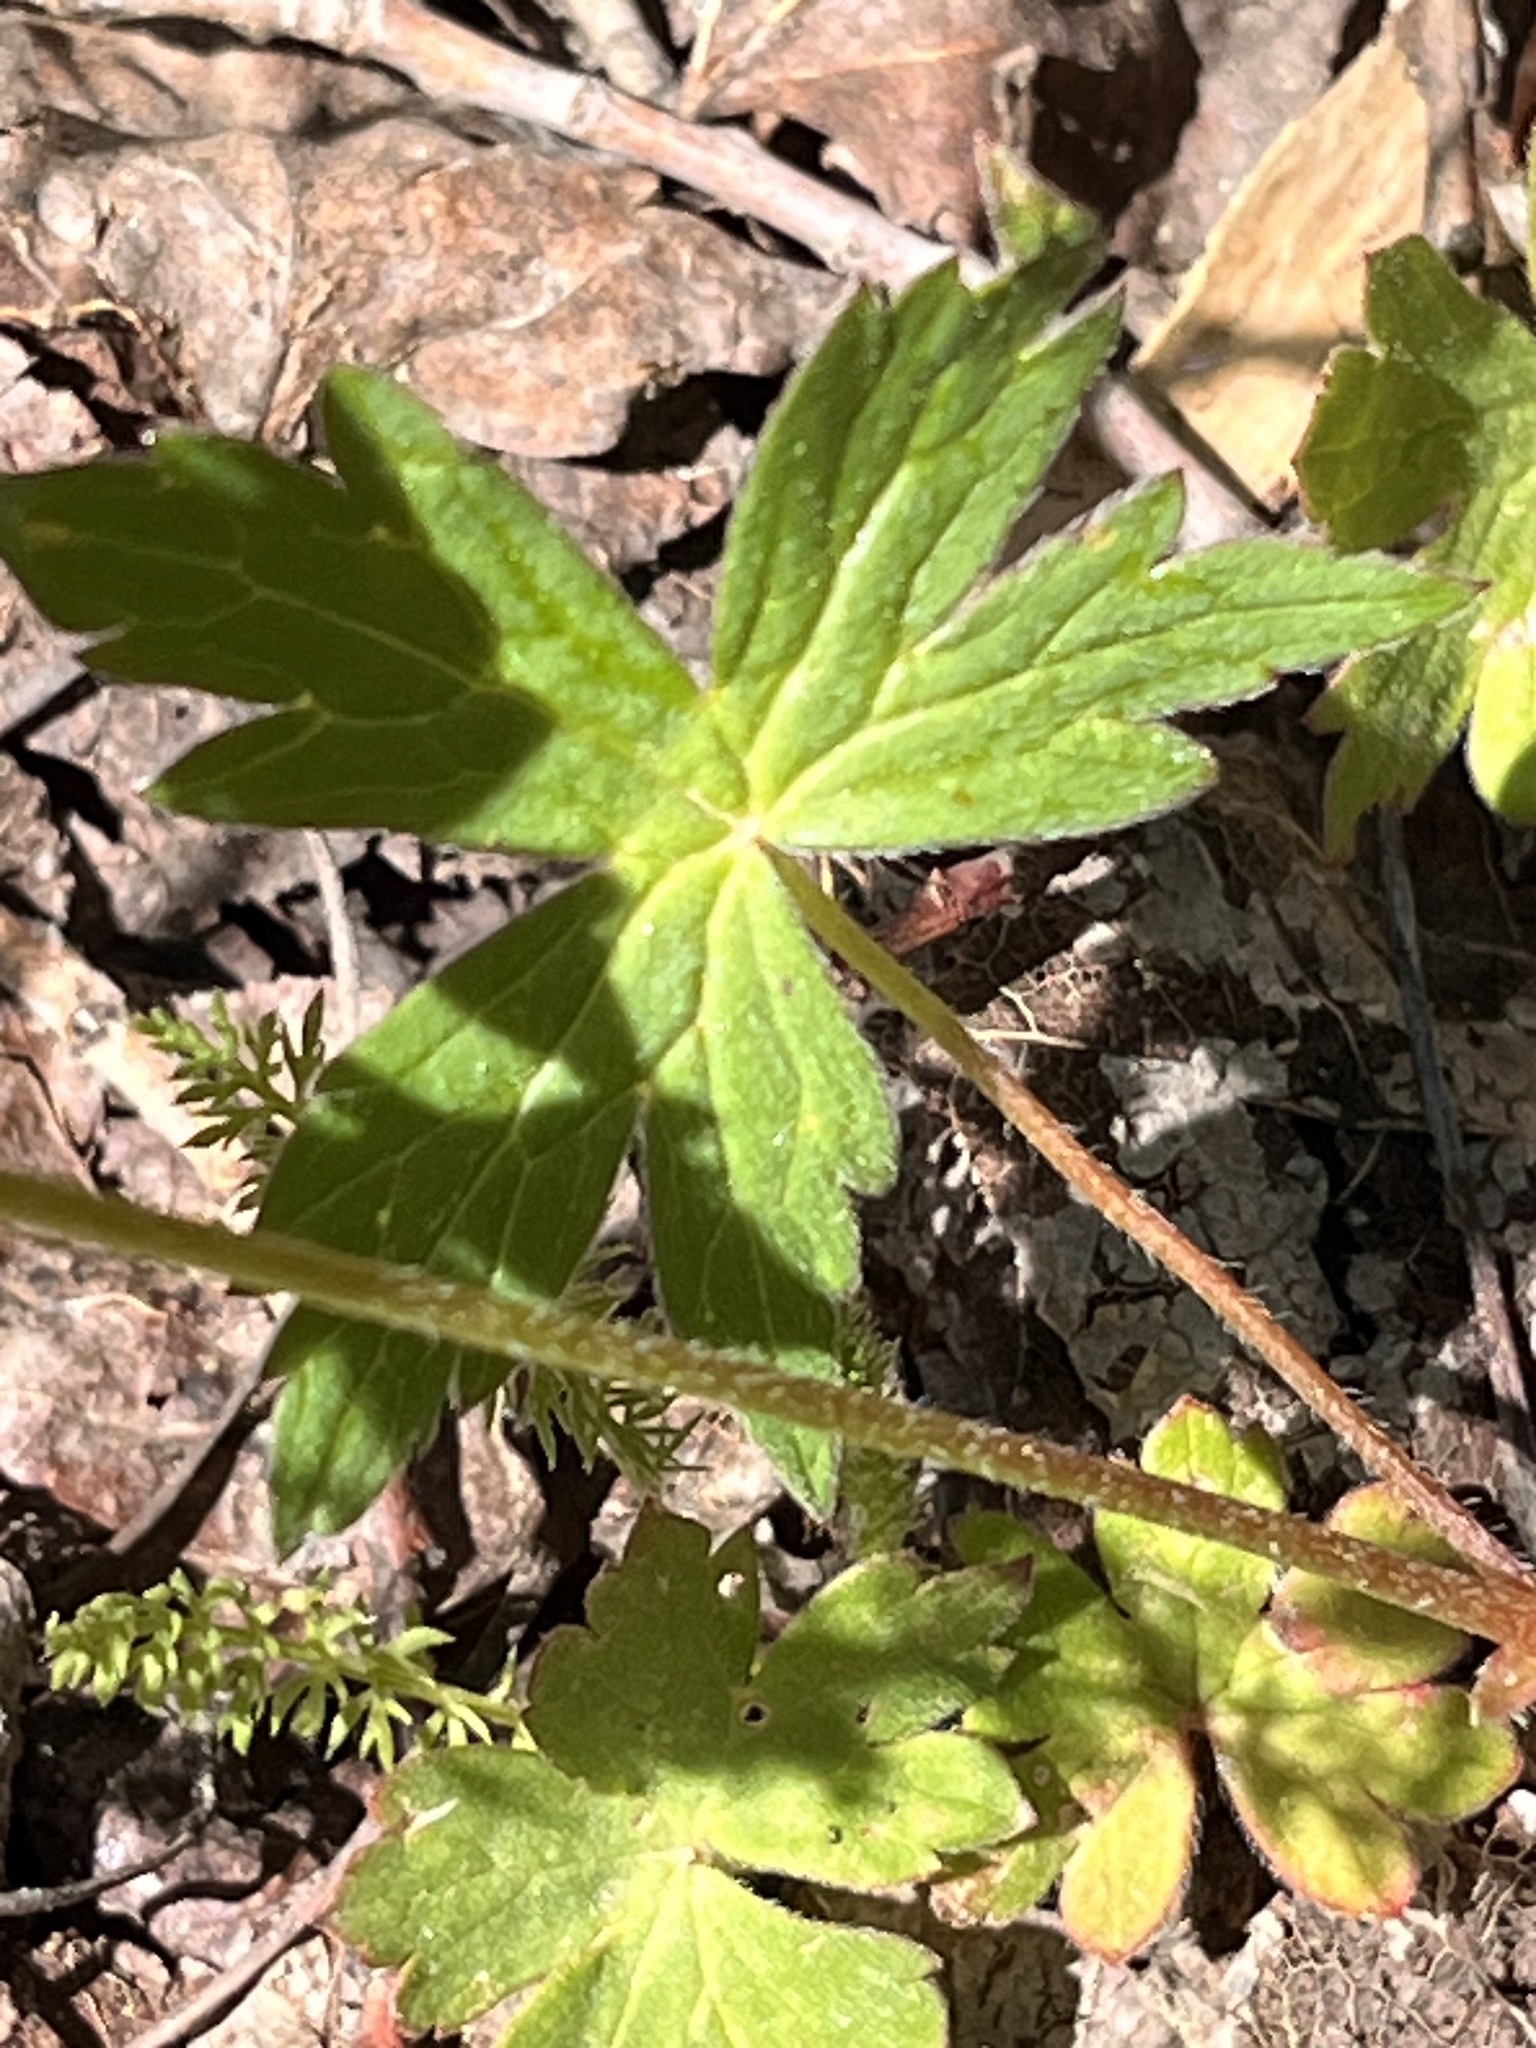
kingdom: Plantae
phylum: Tracheophyta
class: Magnoliopsida
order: Geraniales
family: Geraniaceae
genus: Geranium
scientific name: Geranium richardsonii
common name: Richardson's crane's-bill
